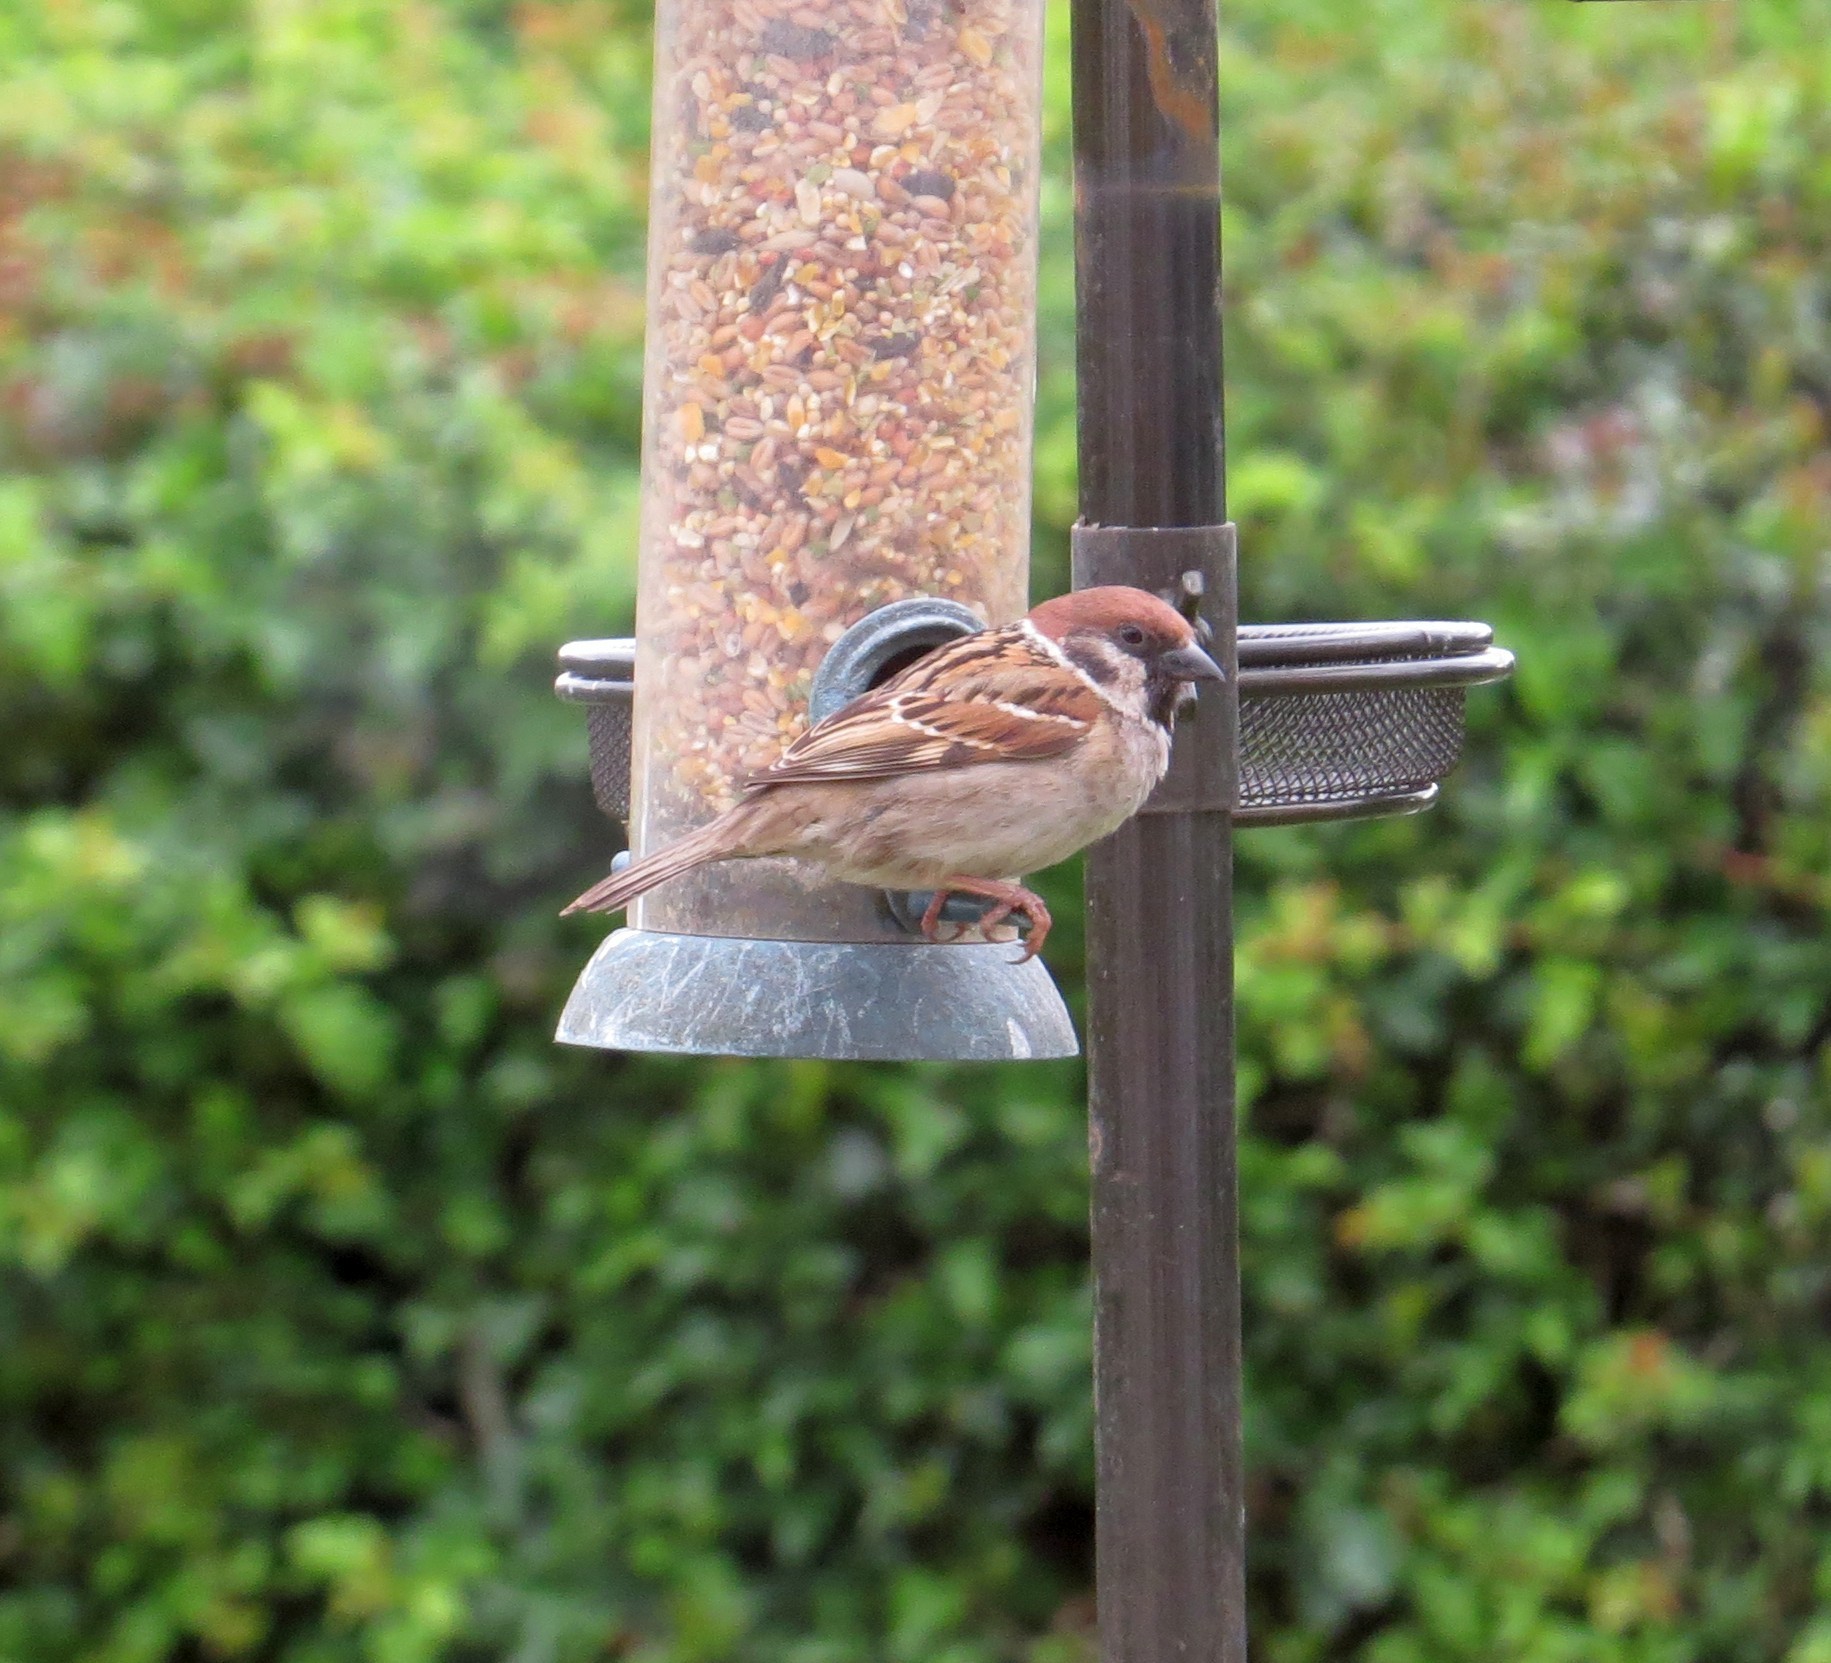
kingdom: Animalia
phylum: Chordata
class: Aves
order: Passeriformes
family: Passeridae
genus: Passer
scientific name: Passer montanus
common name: Eurasian tree sparrow
